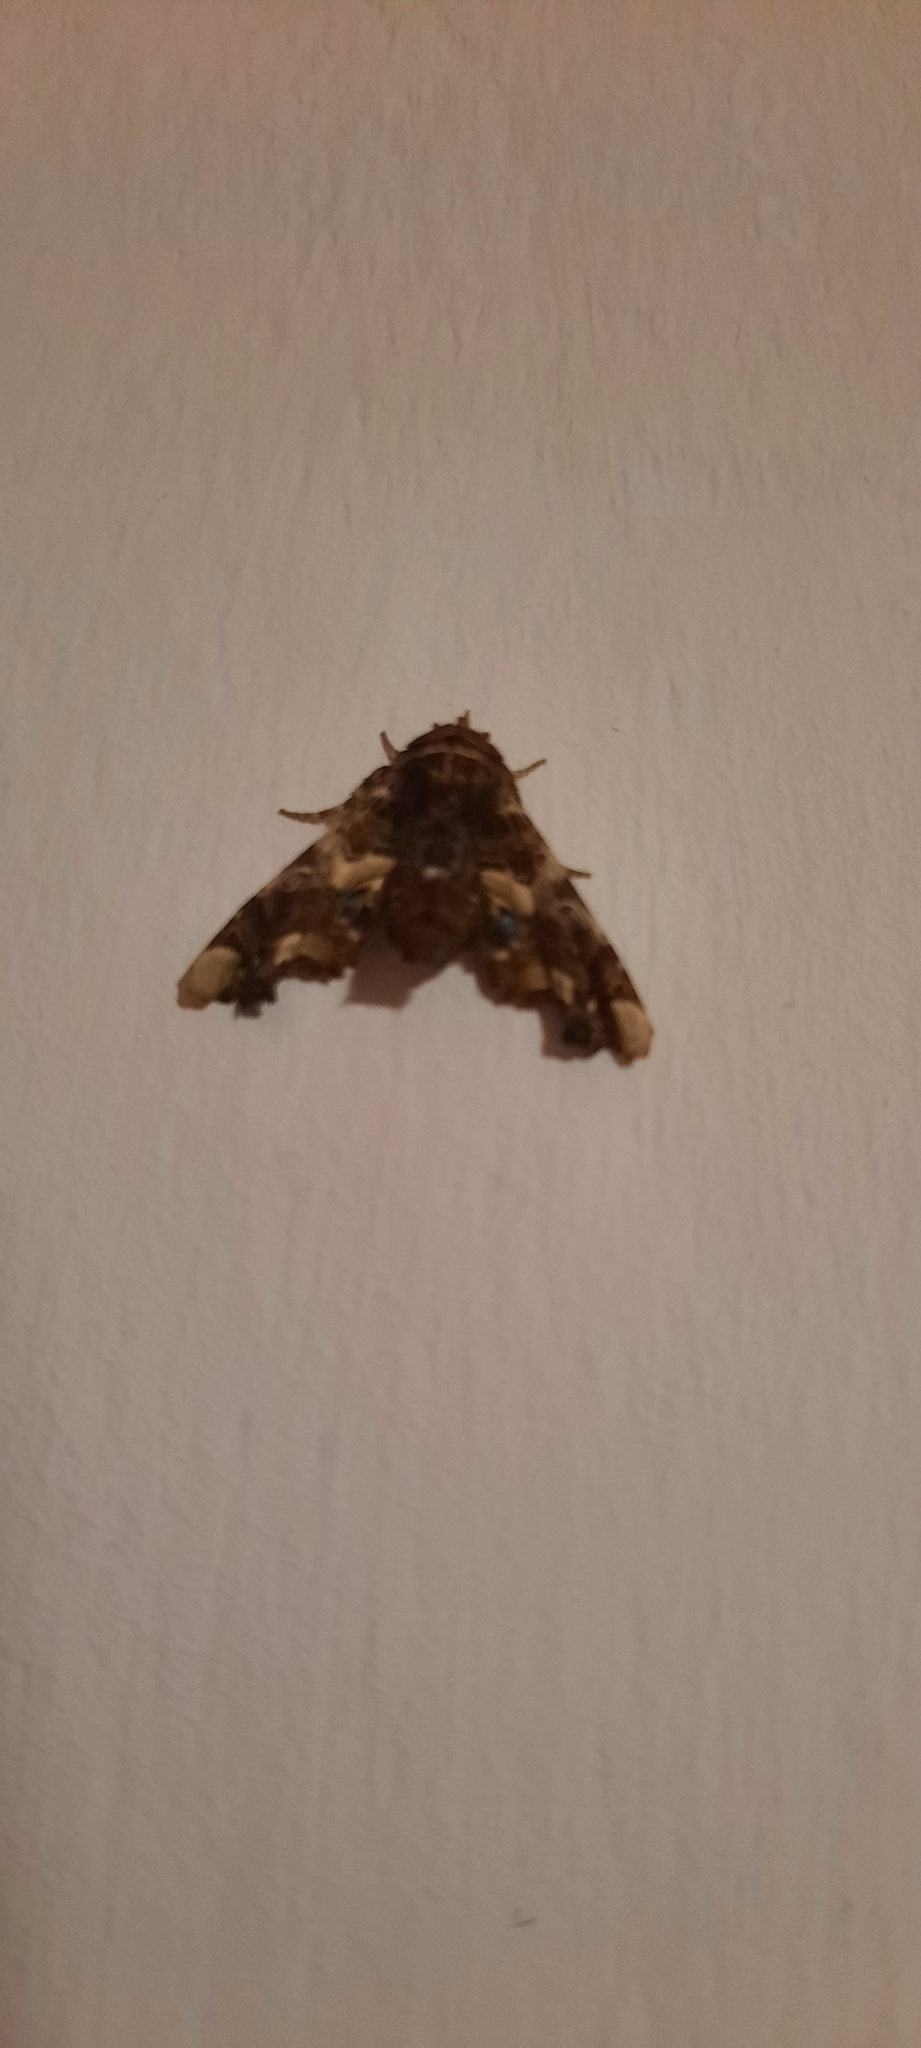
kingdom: Animalia
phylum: Arthropoda
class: Insecta
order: Lepidoptera
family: Euteliidae
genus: Eutelia
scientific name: Eutelia adulatrix
